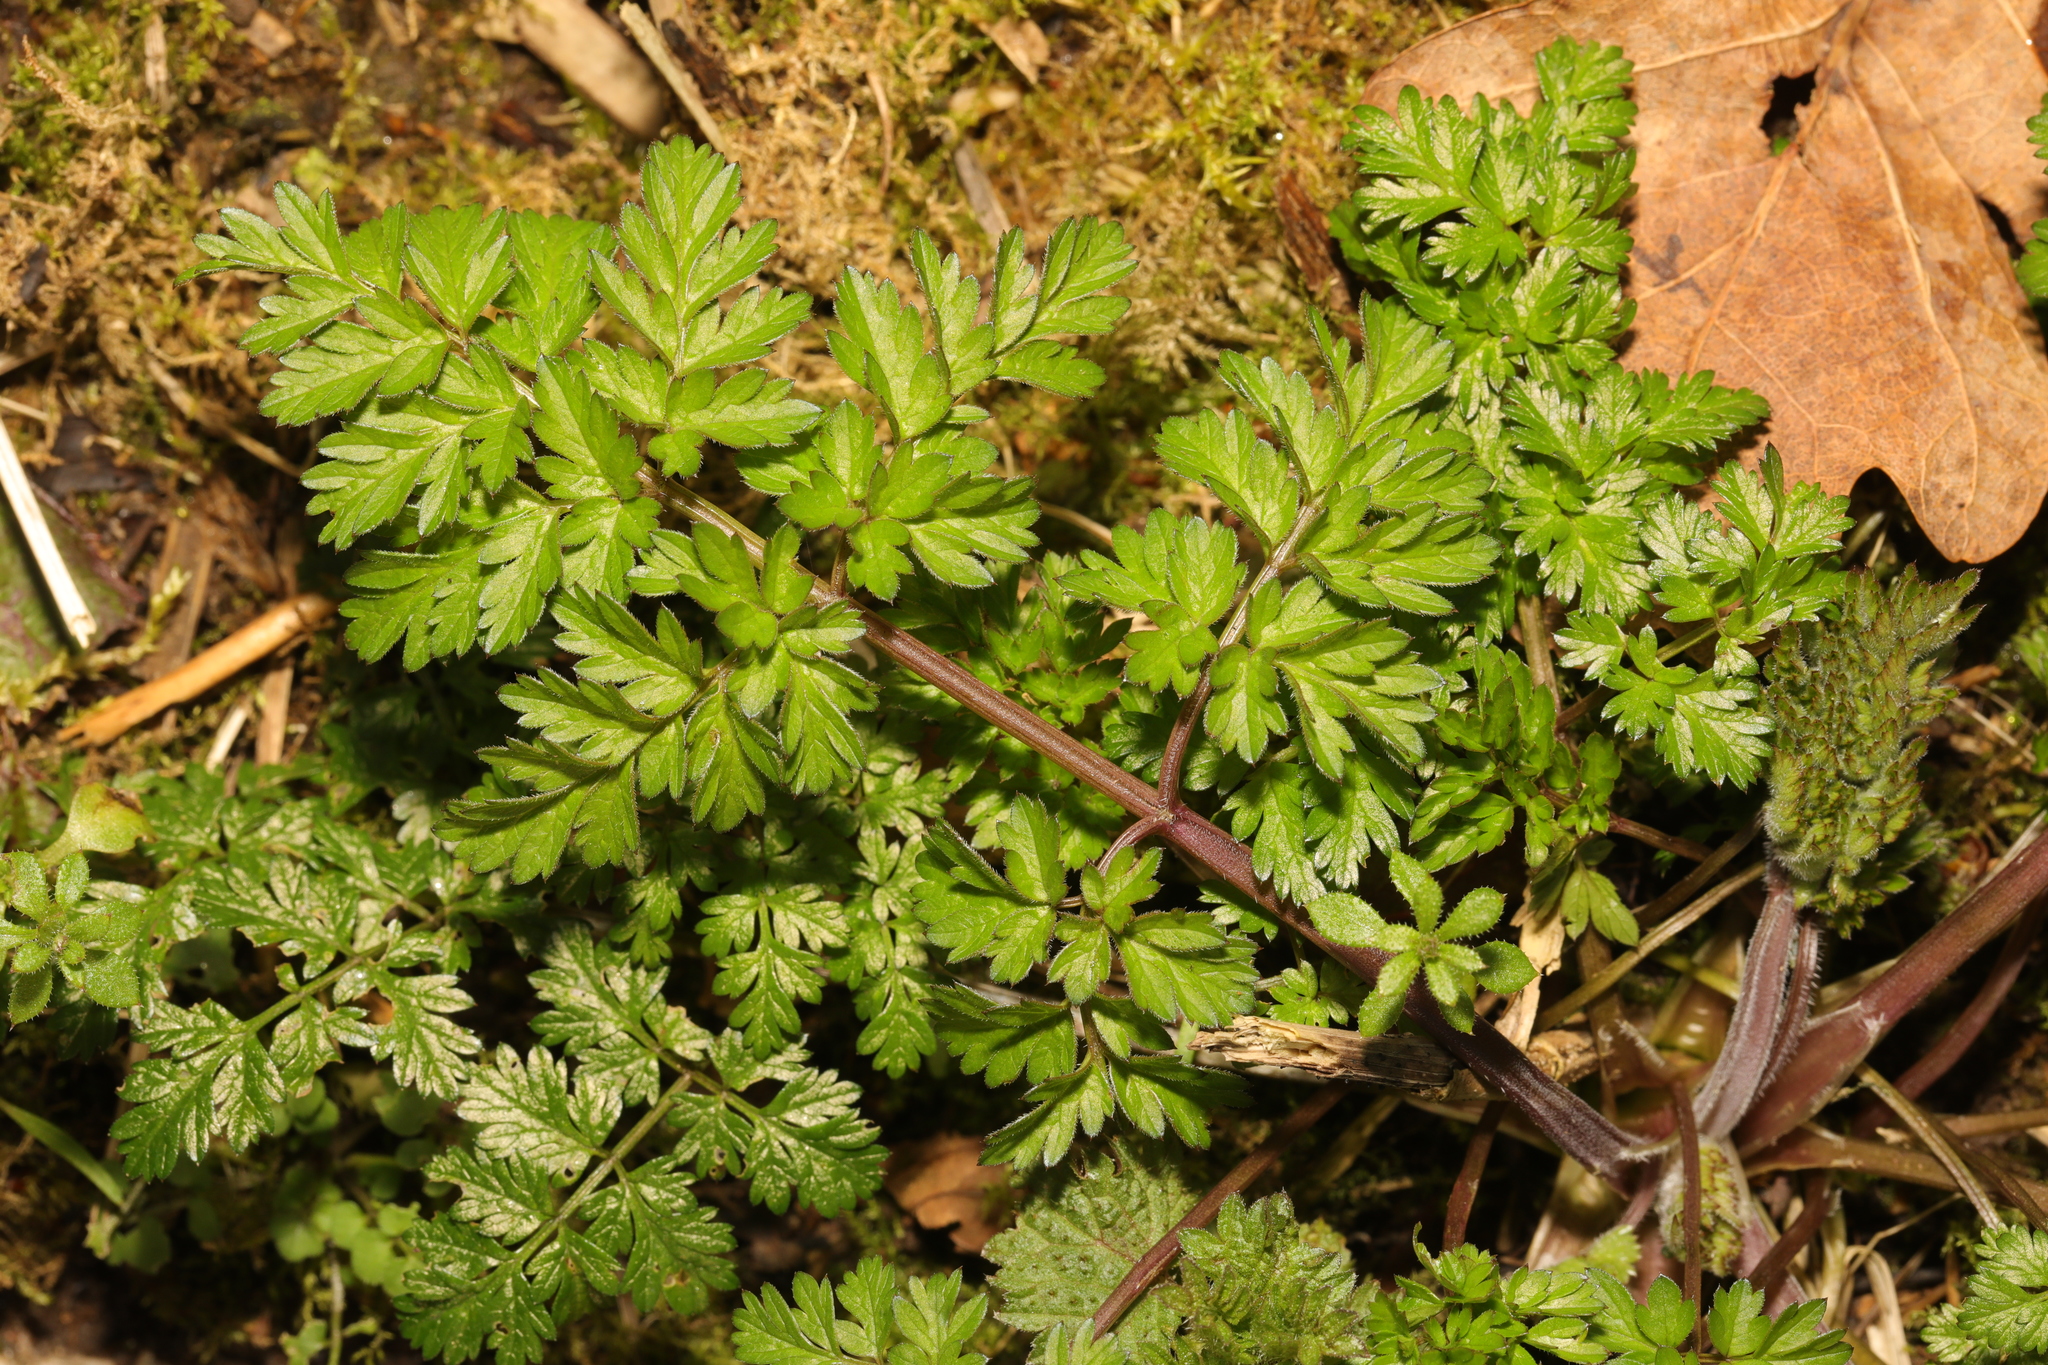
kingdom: Plantae
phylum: Tracheophyta
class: Magnoliopsida
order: Apiales
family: Apiaceae
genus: Anthriscus
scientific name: Anthriscus sylvestris
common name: Cow parsley
